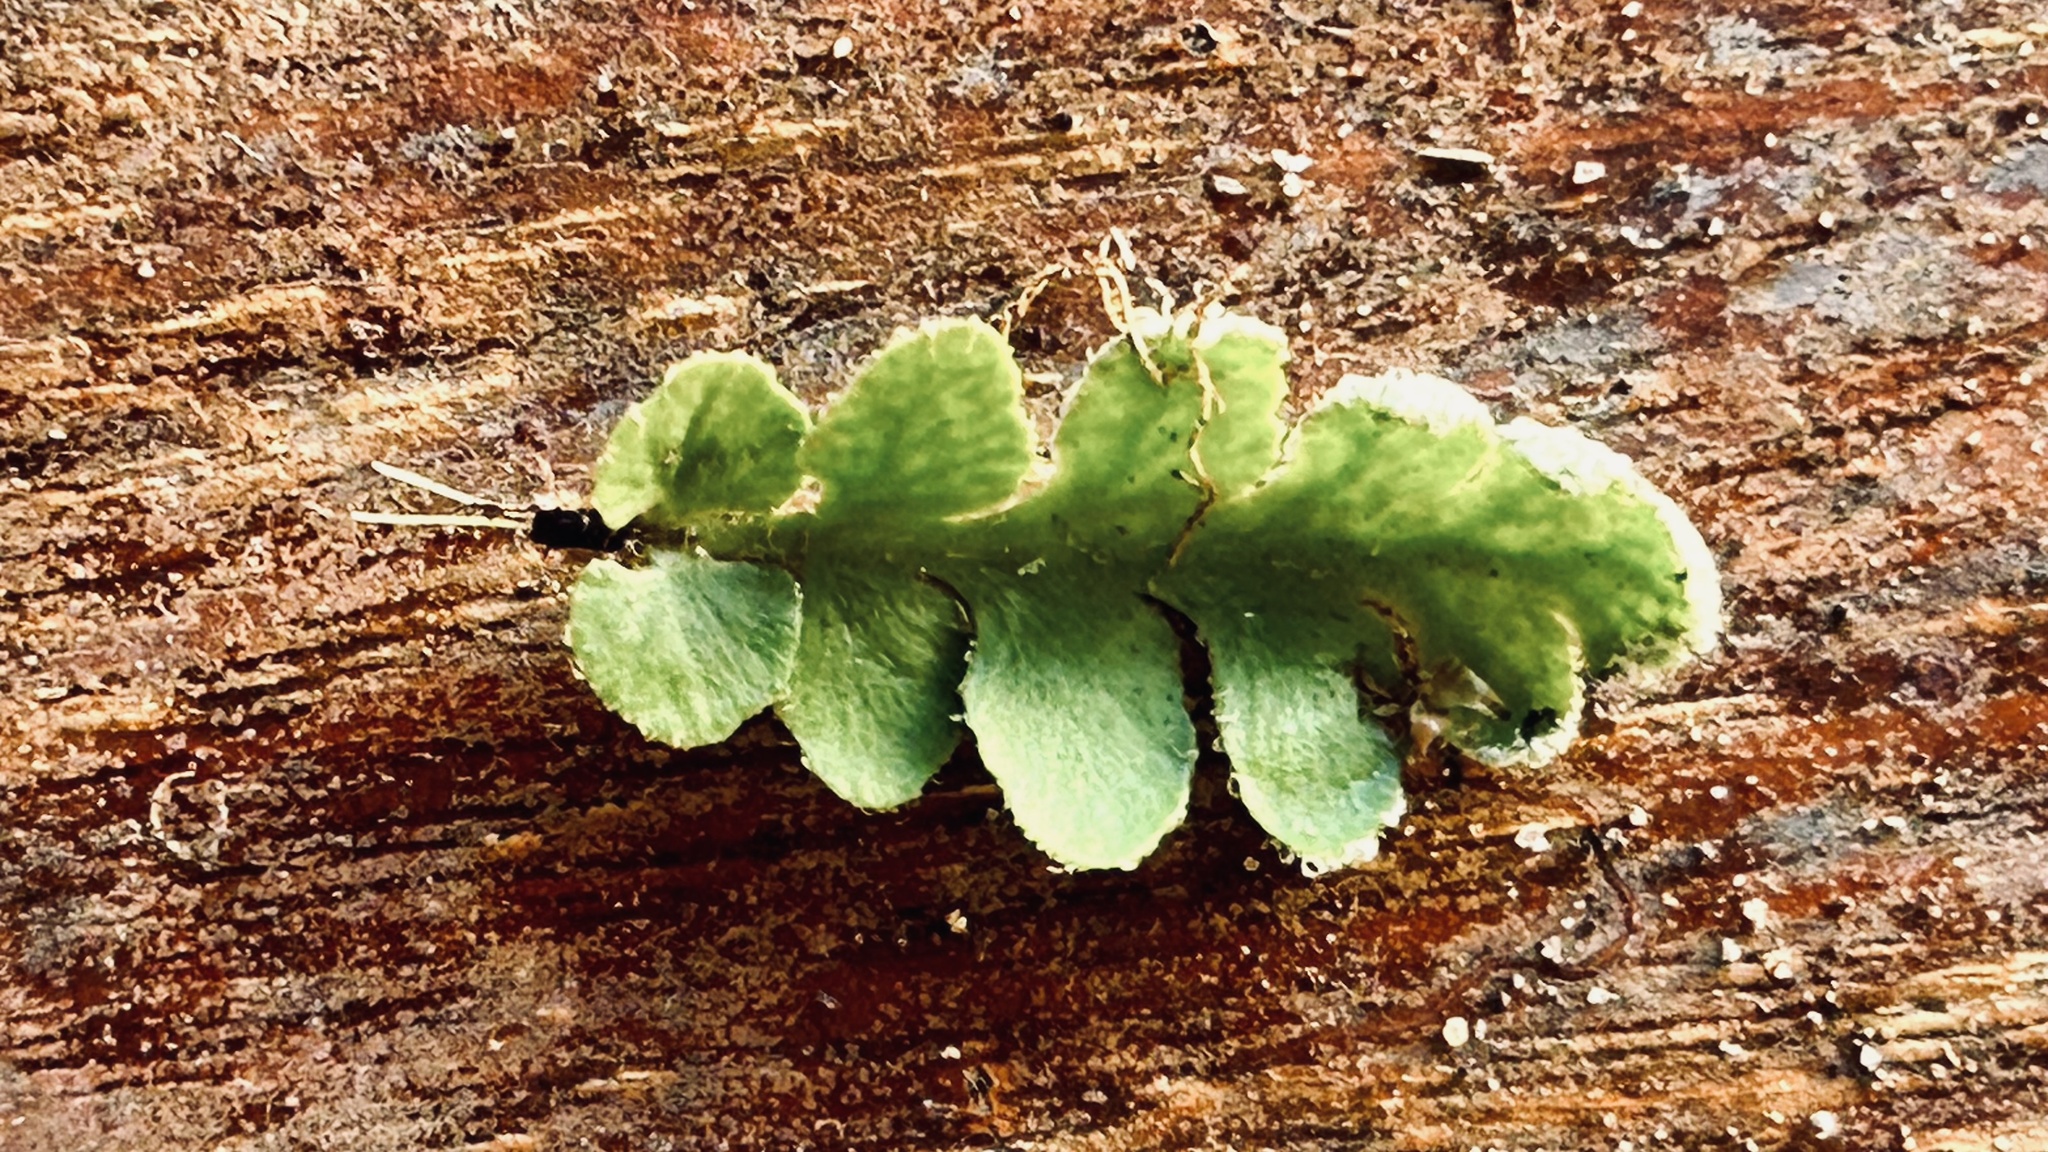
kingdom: Plantae
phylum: Tracheophyta
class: Polypodiopsida
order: Polypodiales
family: Aspleniaceae
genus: Asplenium
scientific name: Asplenium capense
